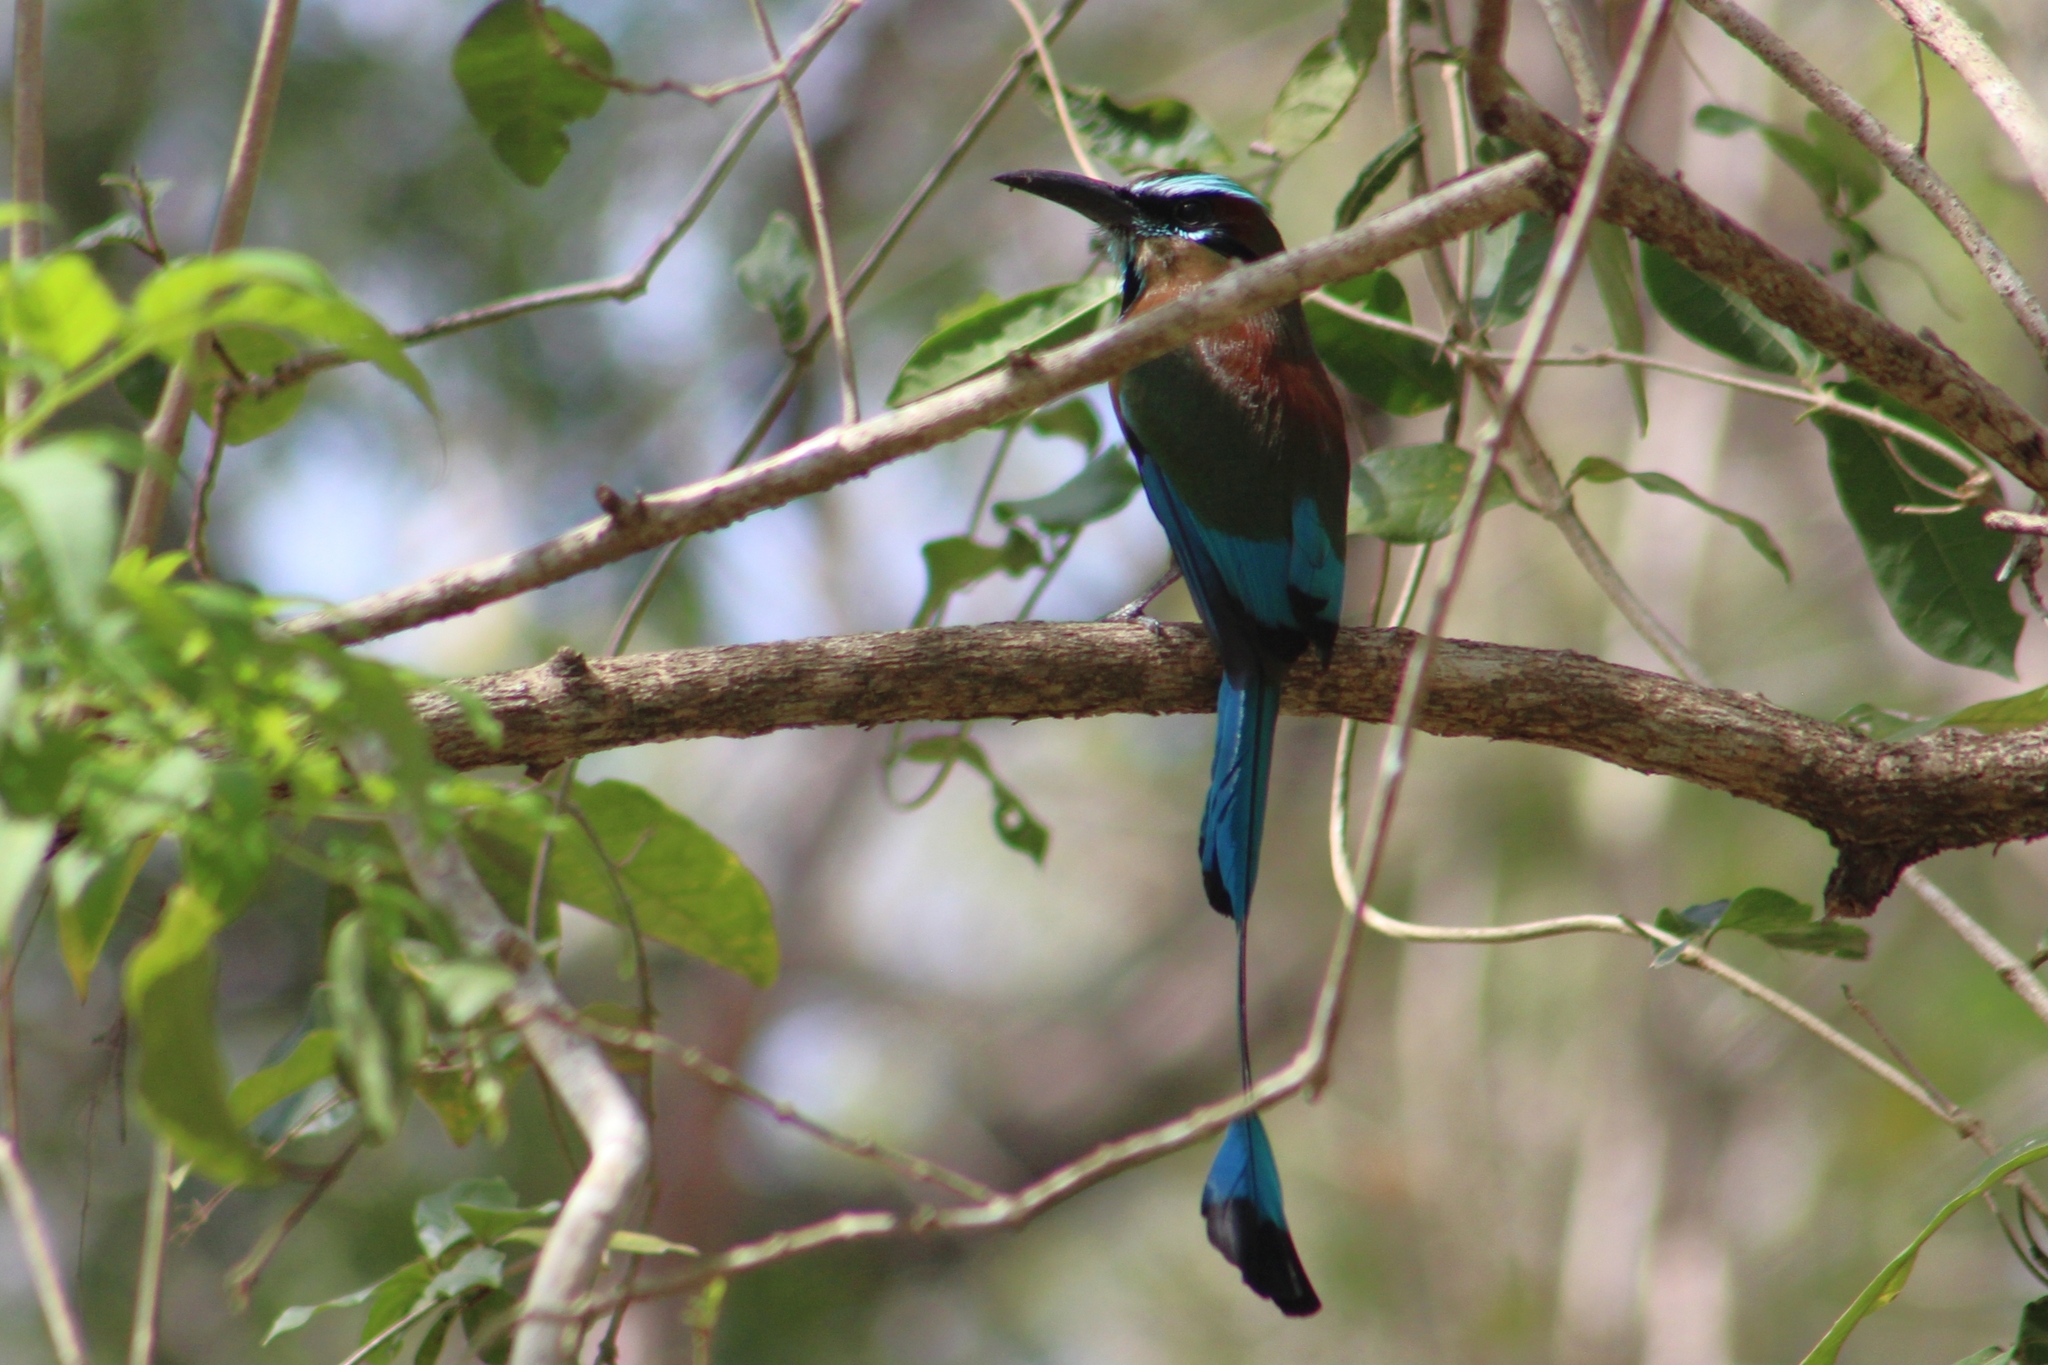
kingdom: Animalia
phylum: Chordata
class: Aves
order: Coraciiformes
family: Momotidae
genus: Eumomota
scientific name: Eumomota superciliosa
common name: Turquoise-browed motmot
